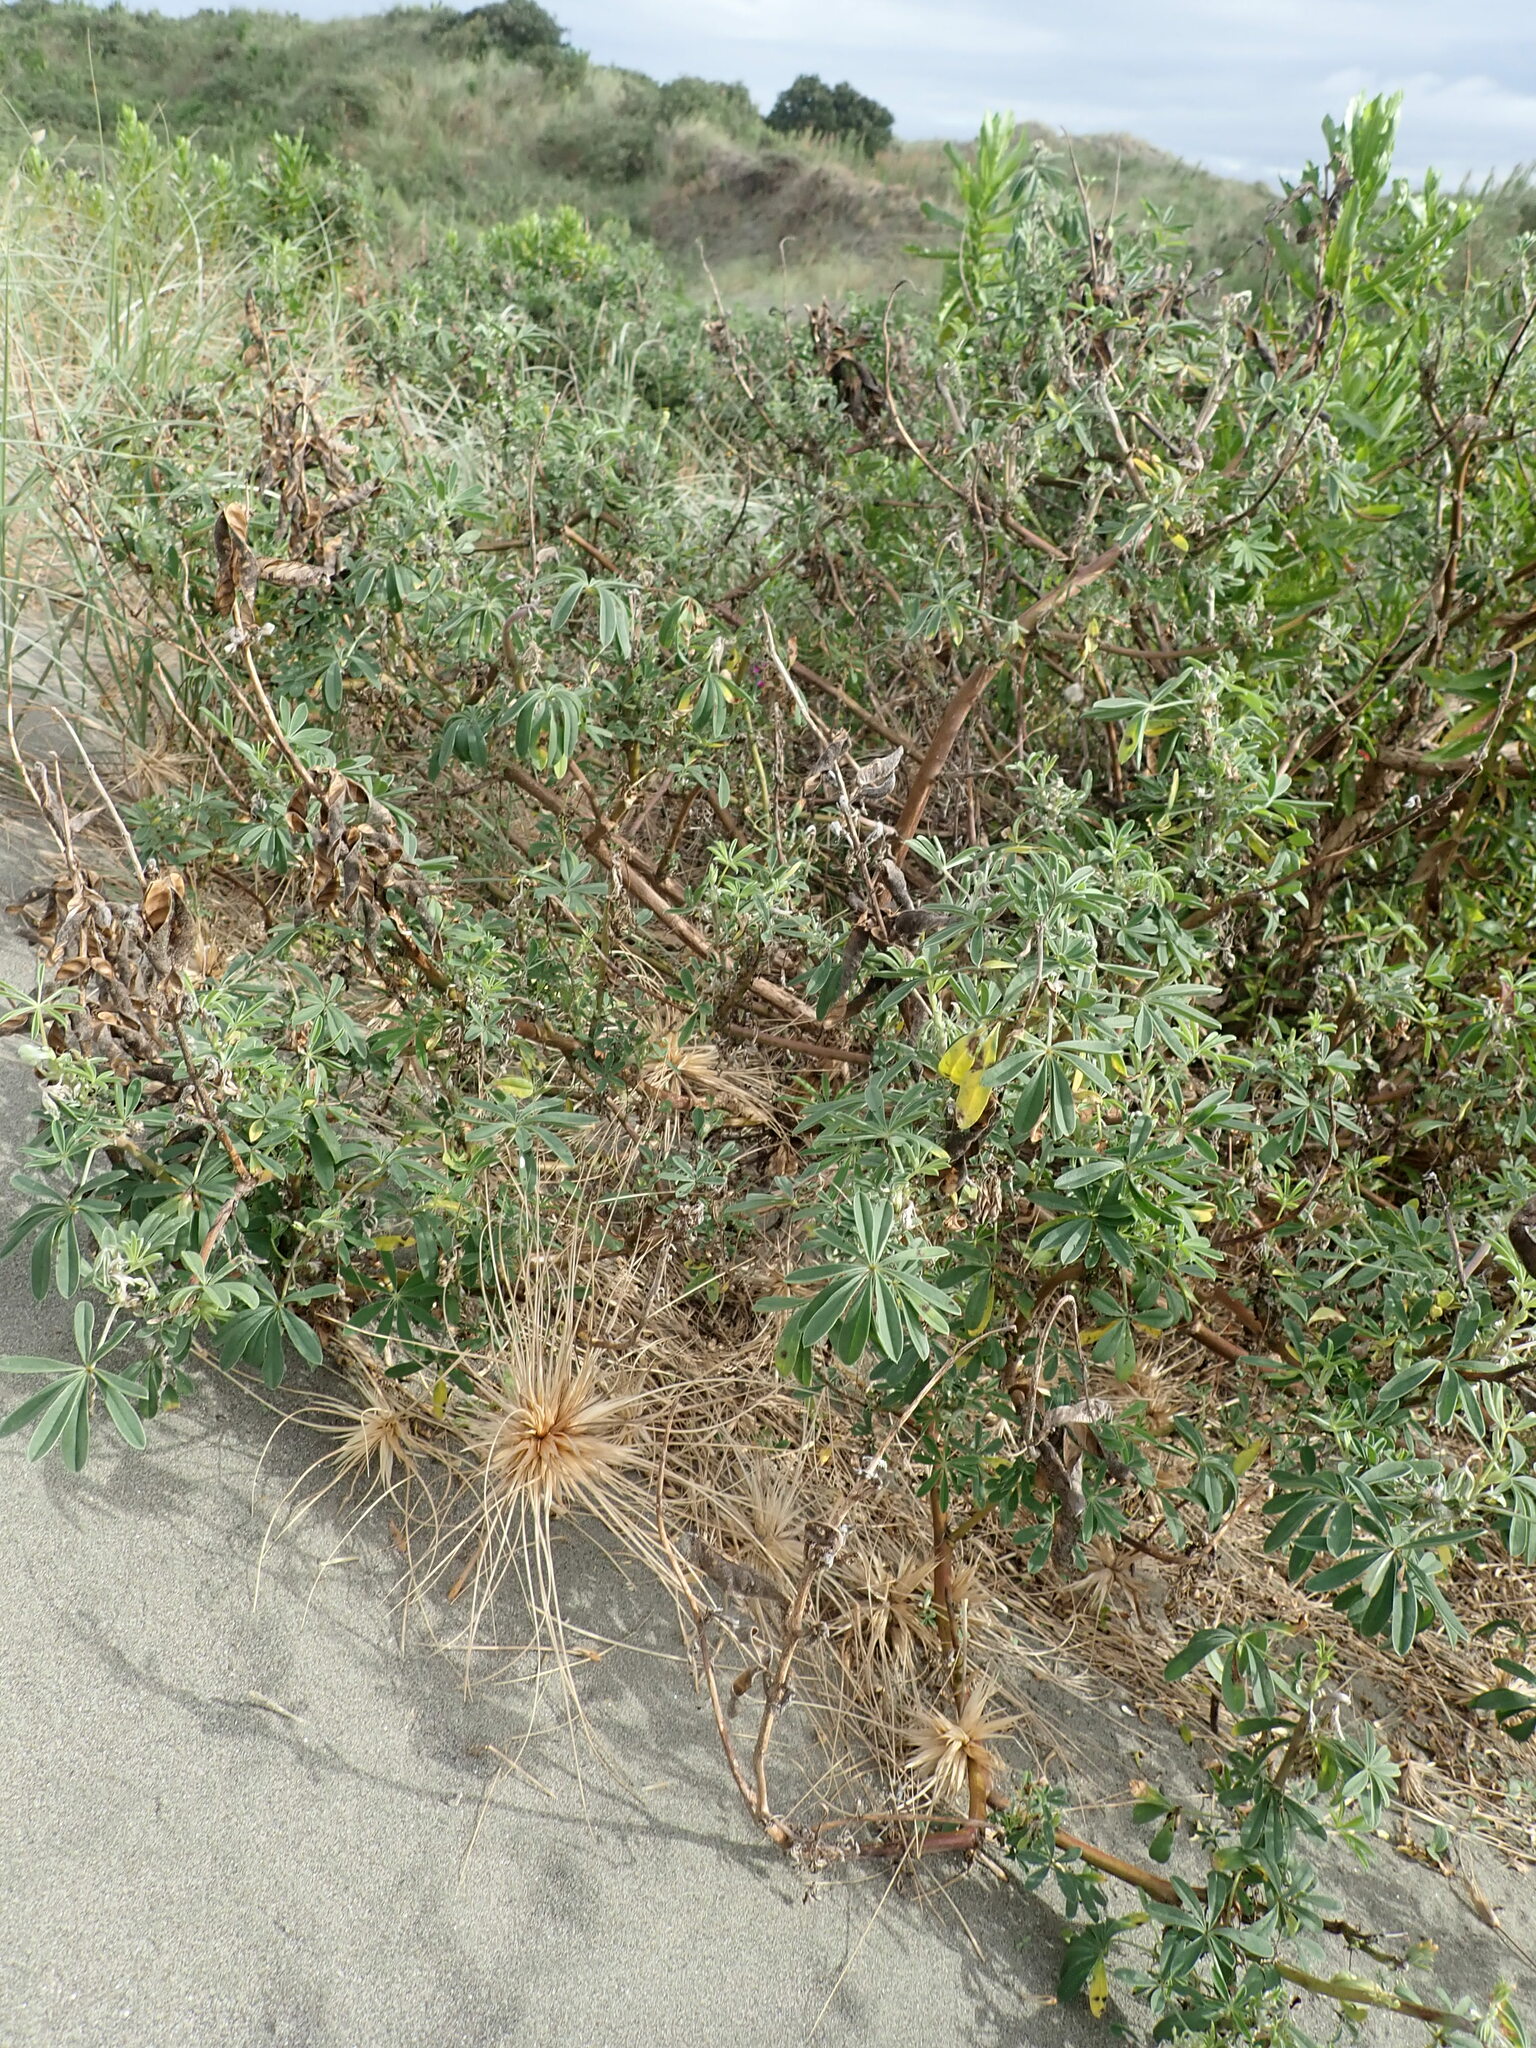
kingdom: Plantae
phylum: Tracheophyta
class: Magnoliopsida
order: Fabales
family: Fabaceae
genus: Lupinus
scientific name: Lupinus arboreus
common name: Yellow bush lupine
